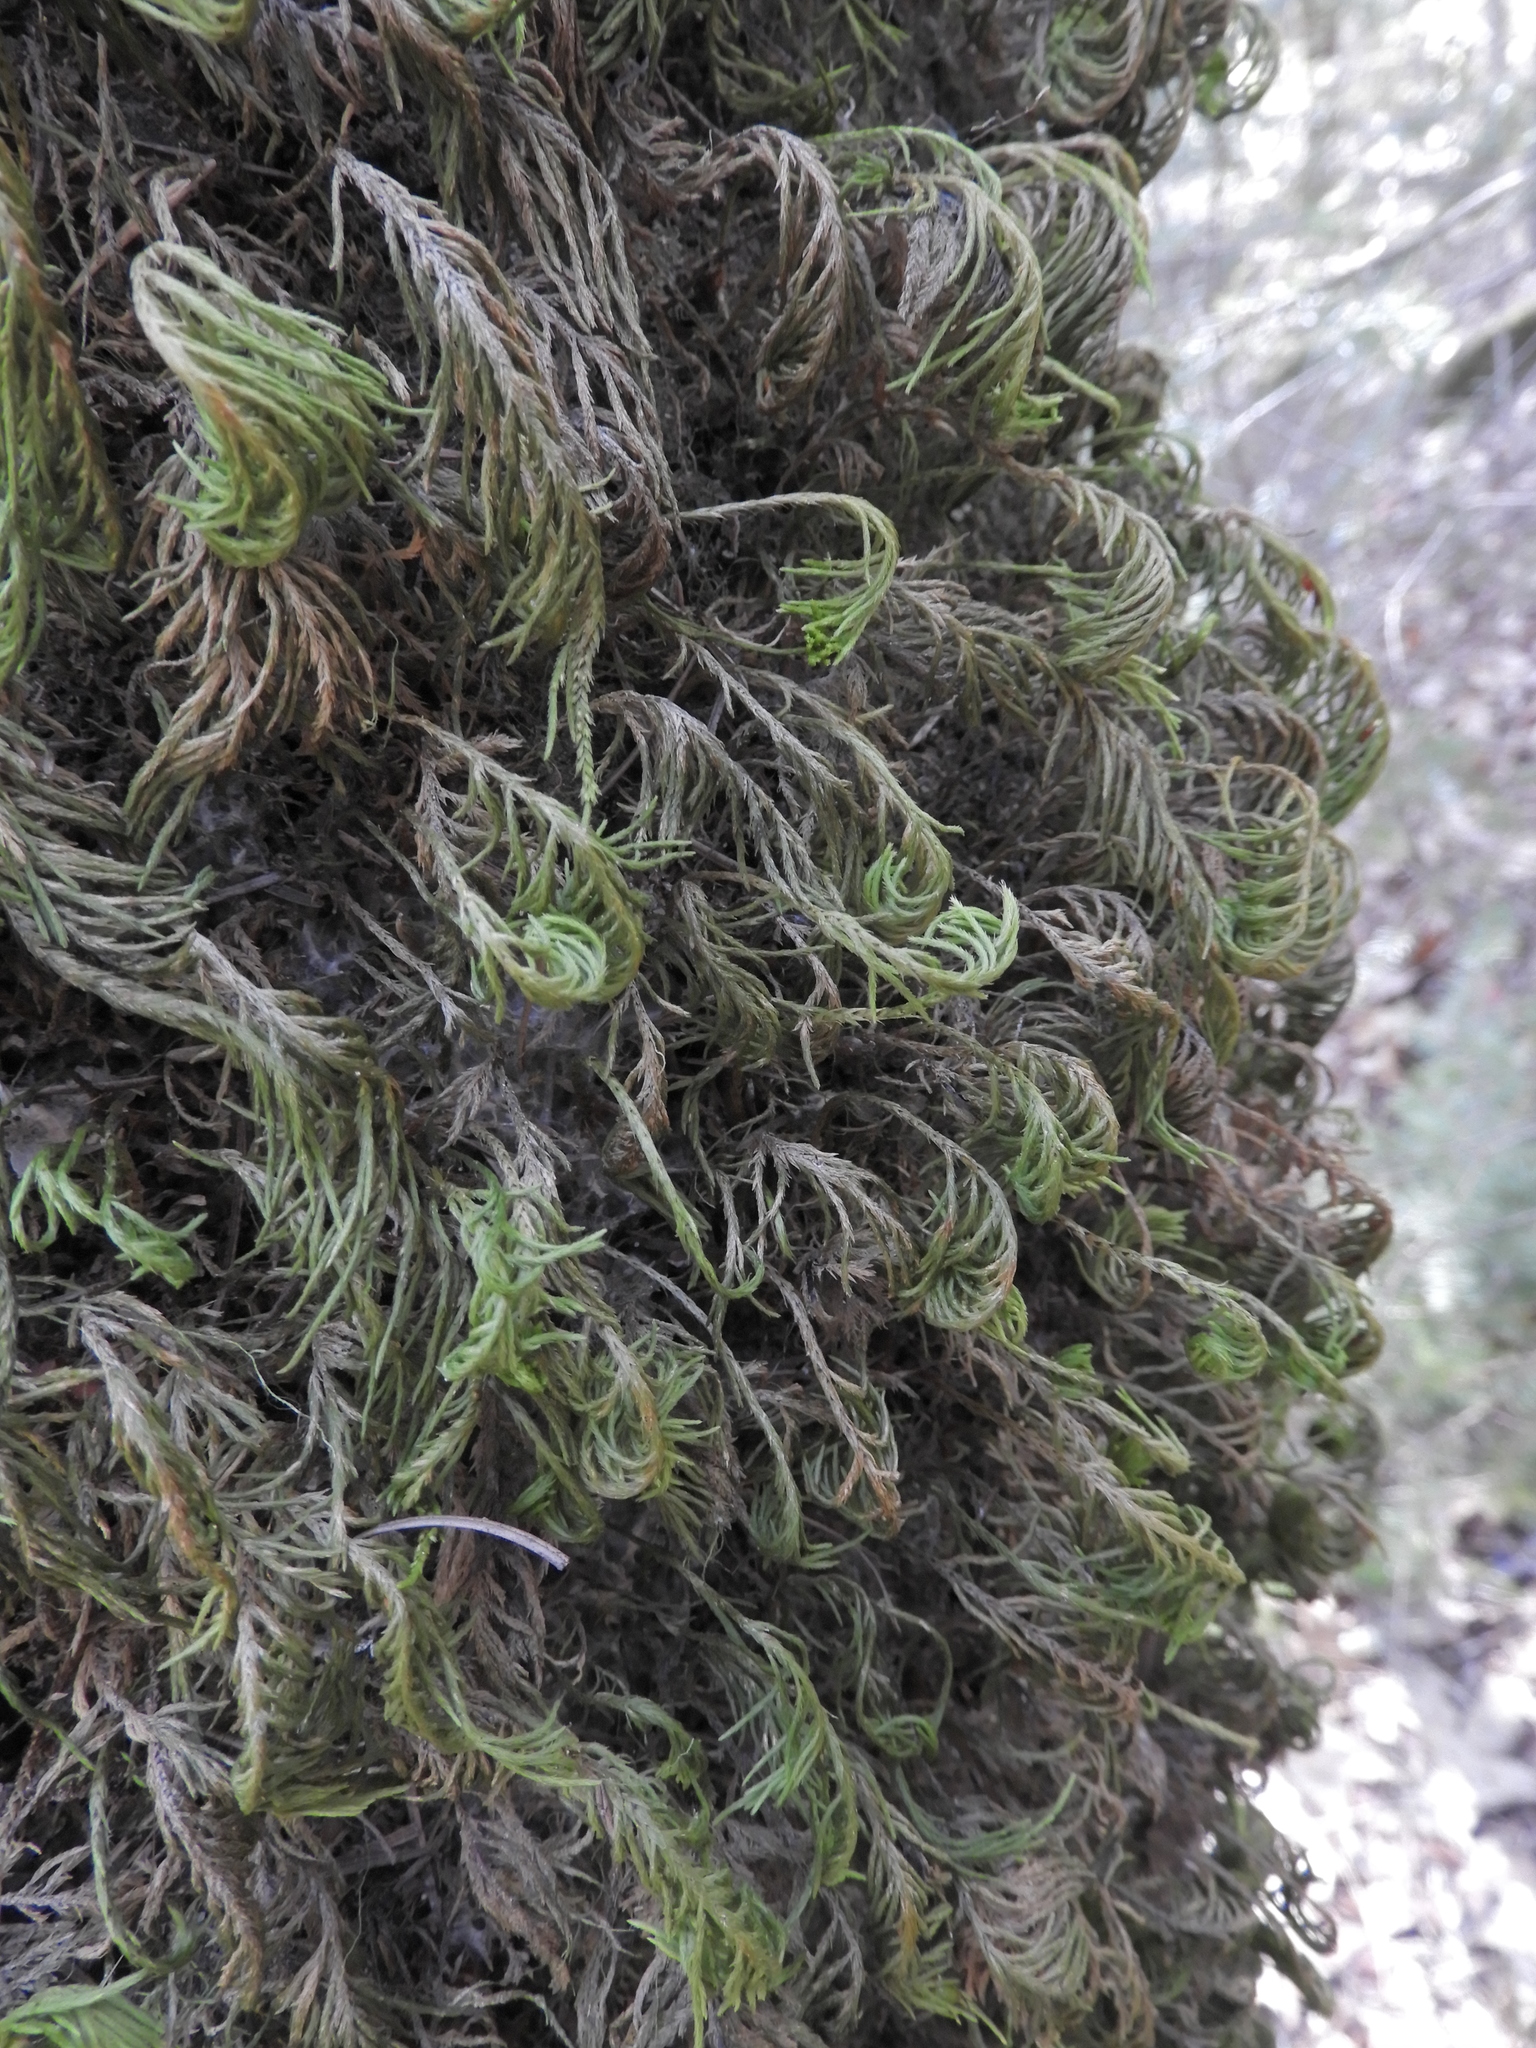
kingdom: Plantae
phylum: Bryophyta
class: Bryopsida
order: Hypnales
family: Cryphaeaceae
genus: Dendroalsia
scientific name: Dendroalsia abietina
